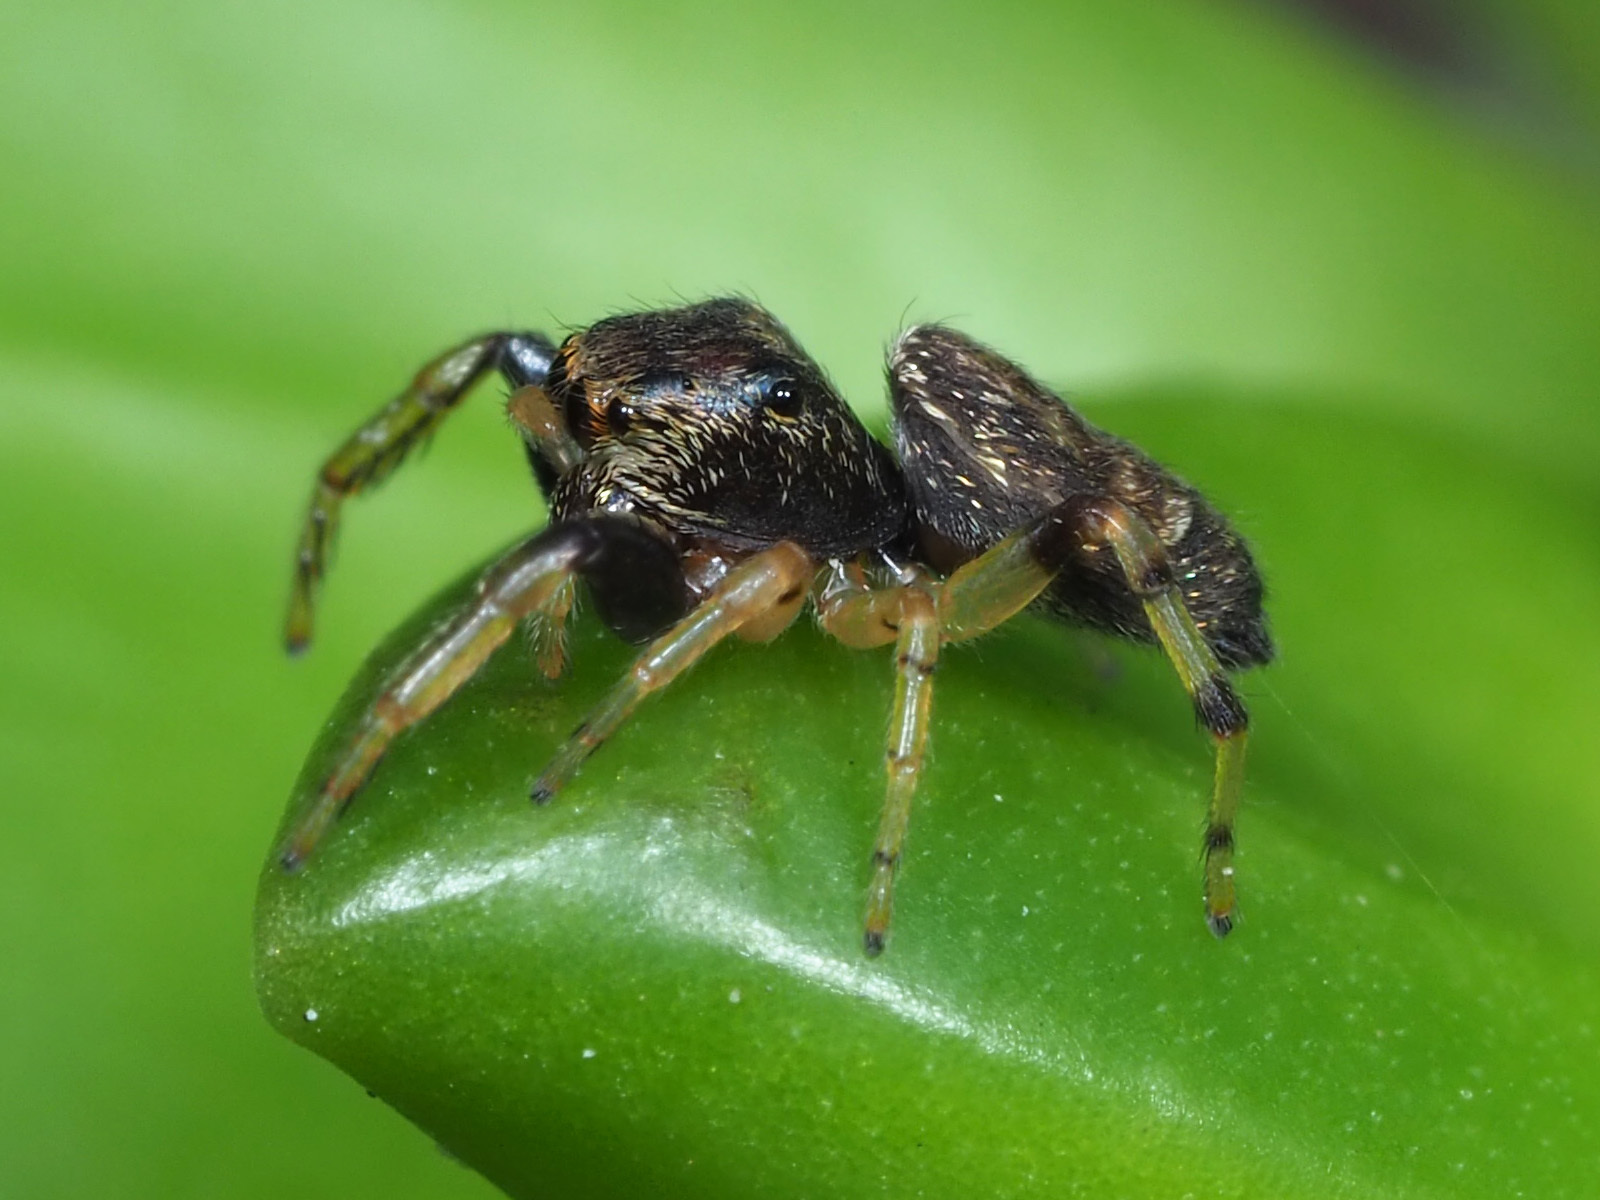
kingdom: Animalia
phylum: Arthropoda
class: Arachnida
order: Araneae
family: Salticidae
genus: Zygoballus
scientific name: Zygoballus rufipes
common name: Jumping spiders
